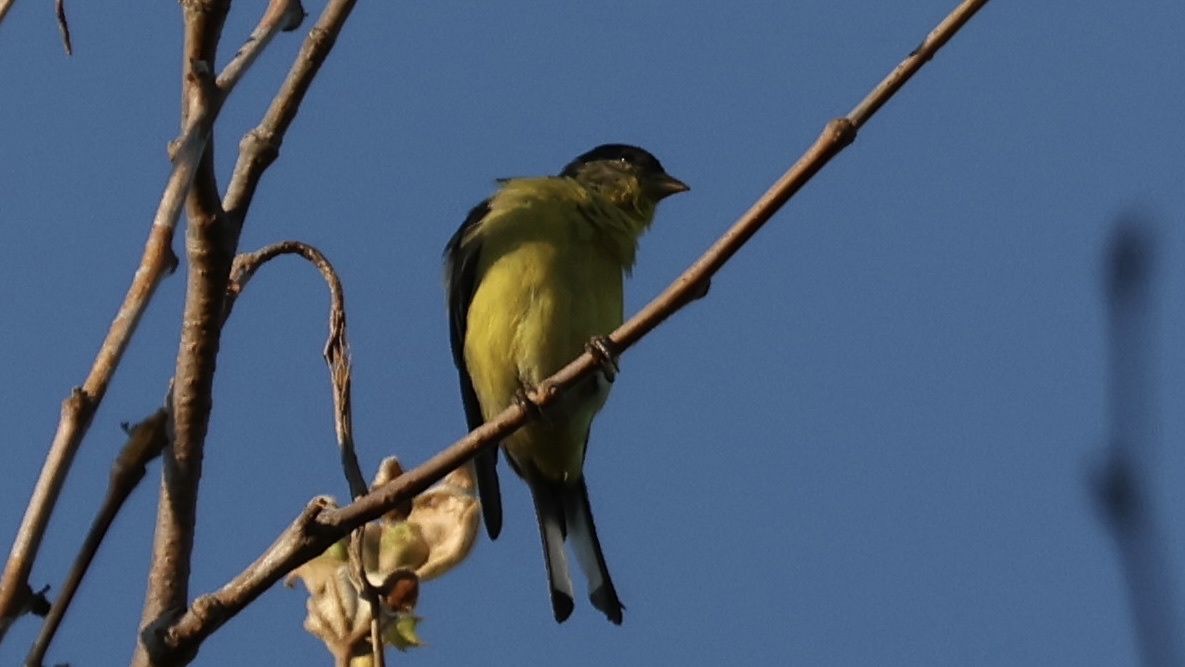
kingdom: Animalia
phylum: Chordata
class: Aves
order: Passeriformes
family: Fringillidae
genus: Spinus
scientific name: Spinus psaltria
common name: Lesser goldfinch
